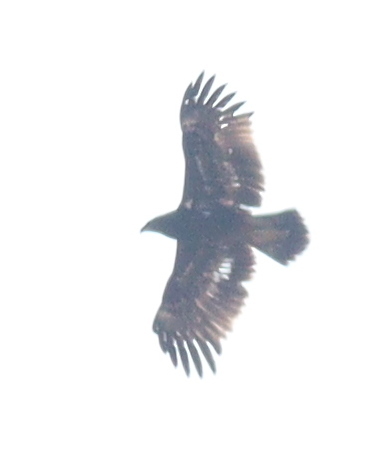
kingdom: Animalia
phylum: Chordata
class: Aves
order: Accipitriformes
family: Accipitridae
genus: Aquila
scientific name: Aquila clanga
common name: Greater spotted eagle
